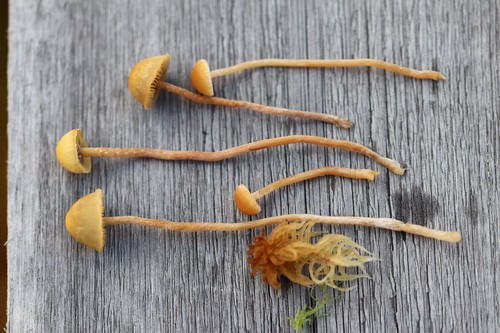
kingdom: Fungi
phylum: Basidiomycota
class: Agaricomycetes
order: Agaricales
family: Strophariaceae
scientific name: Strophariaceae
